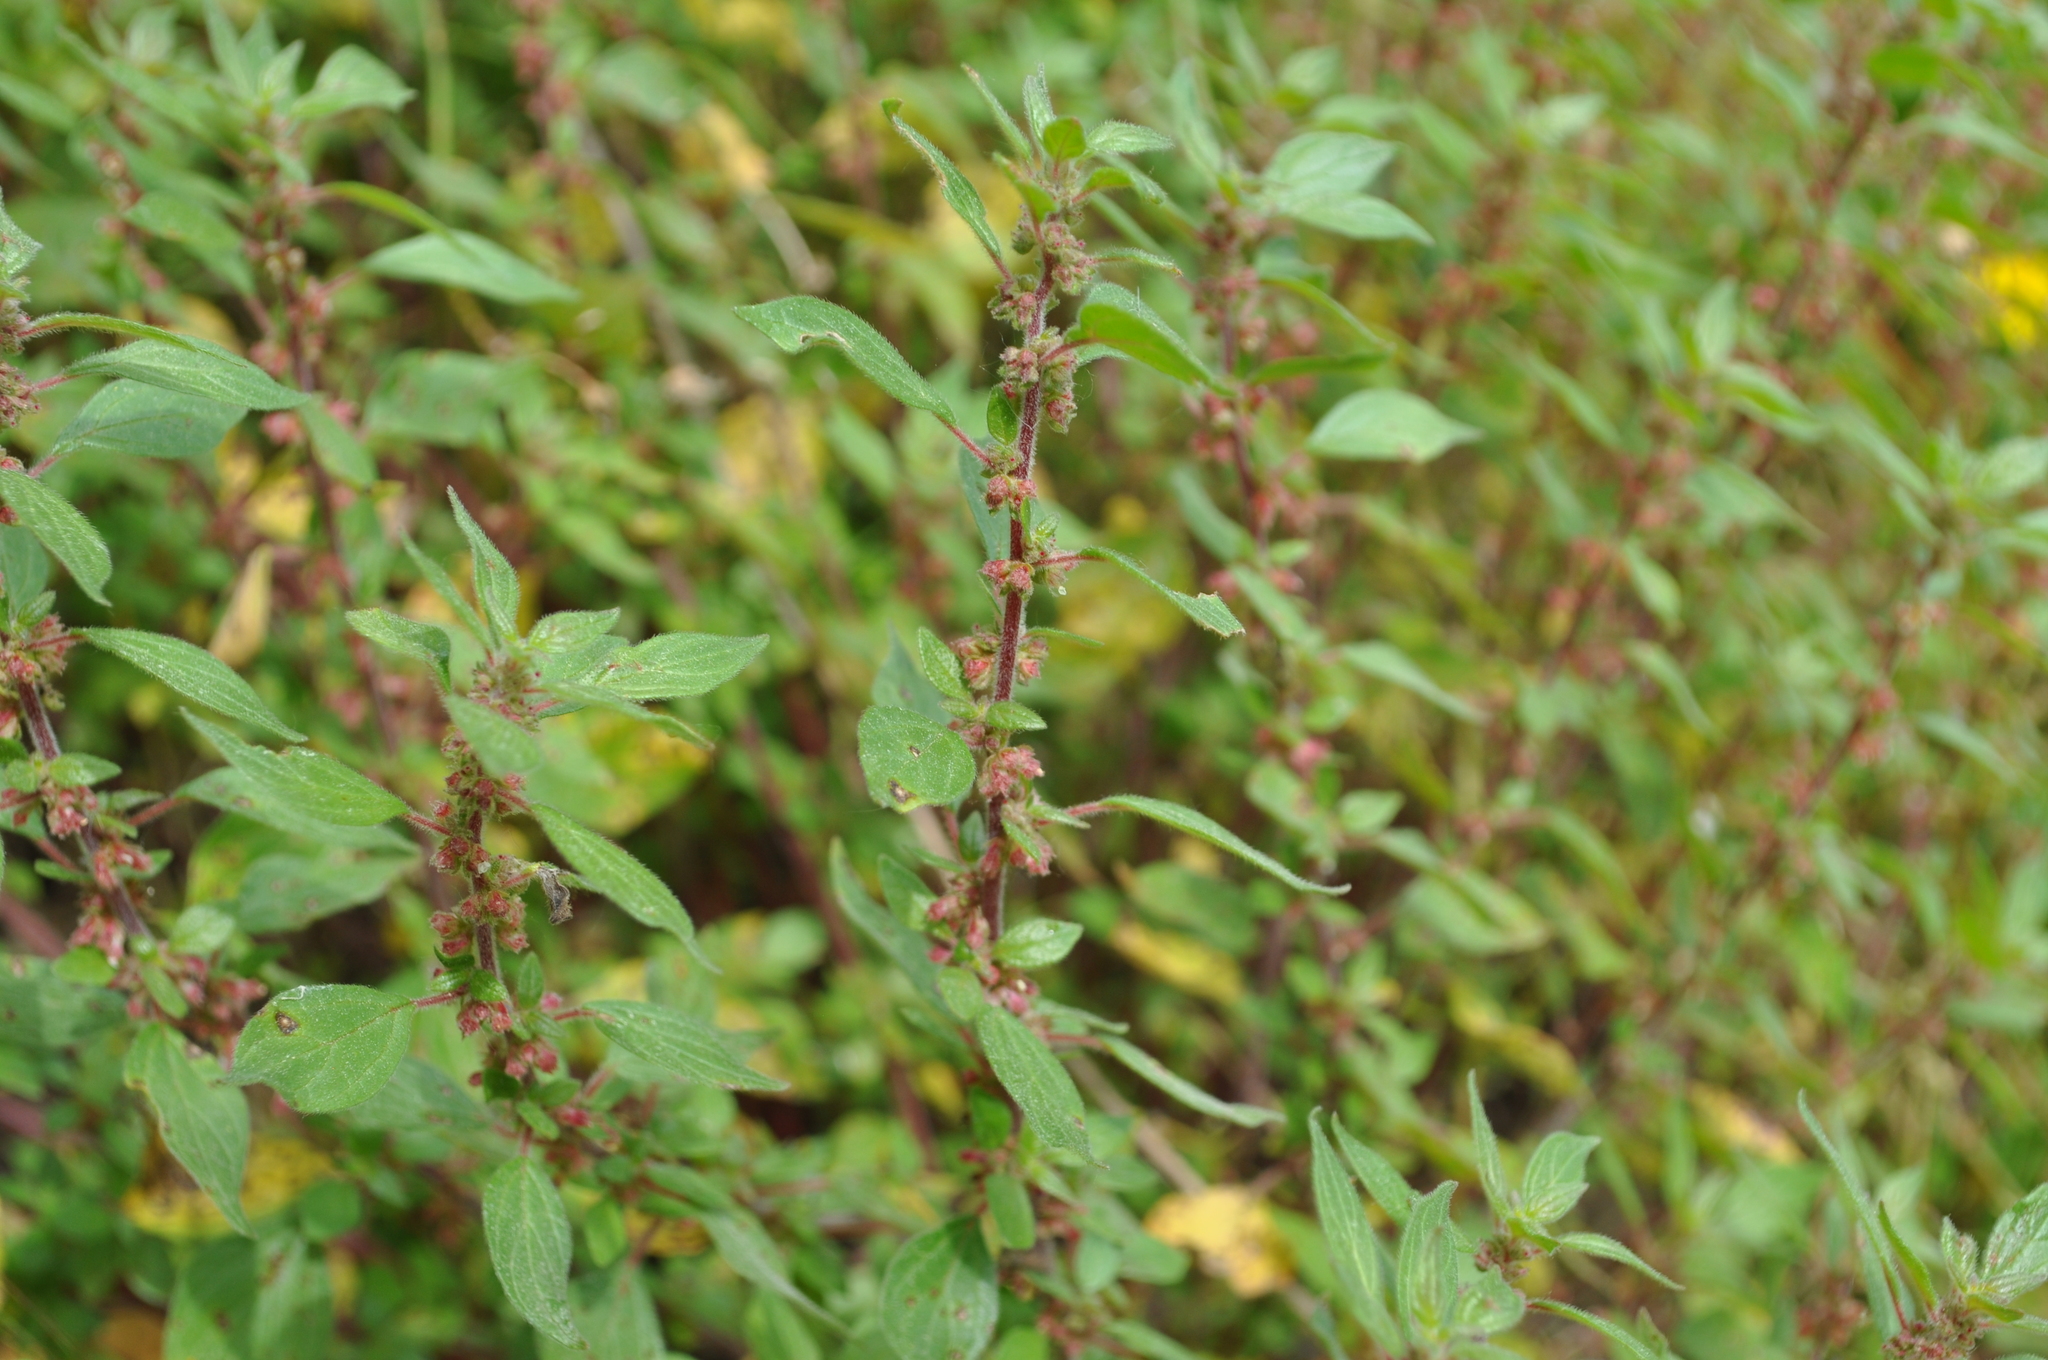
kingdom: Plantae
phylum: Tracheophyta
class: Magnoliopsida
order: Rosales
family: Urticaceae
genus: Parietaria
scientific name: Parietaria judaica
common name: Pellitory-of-the-wall
